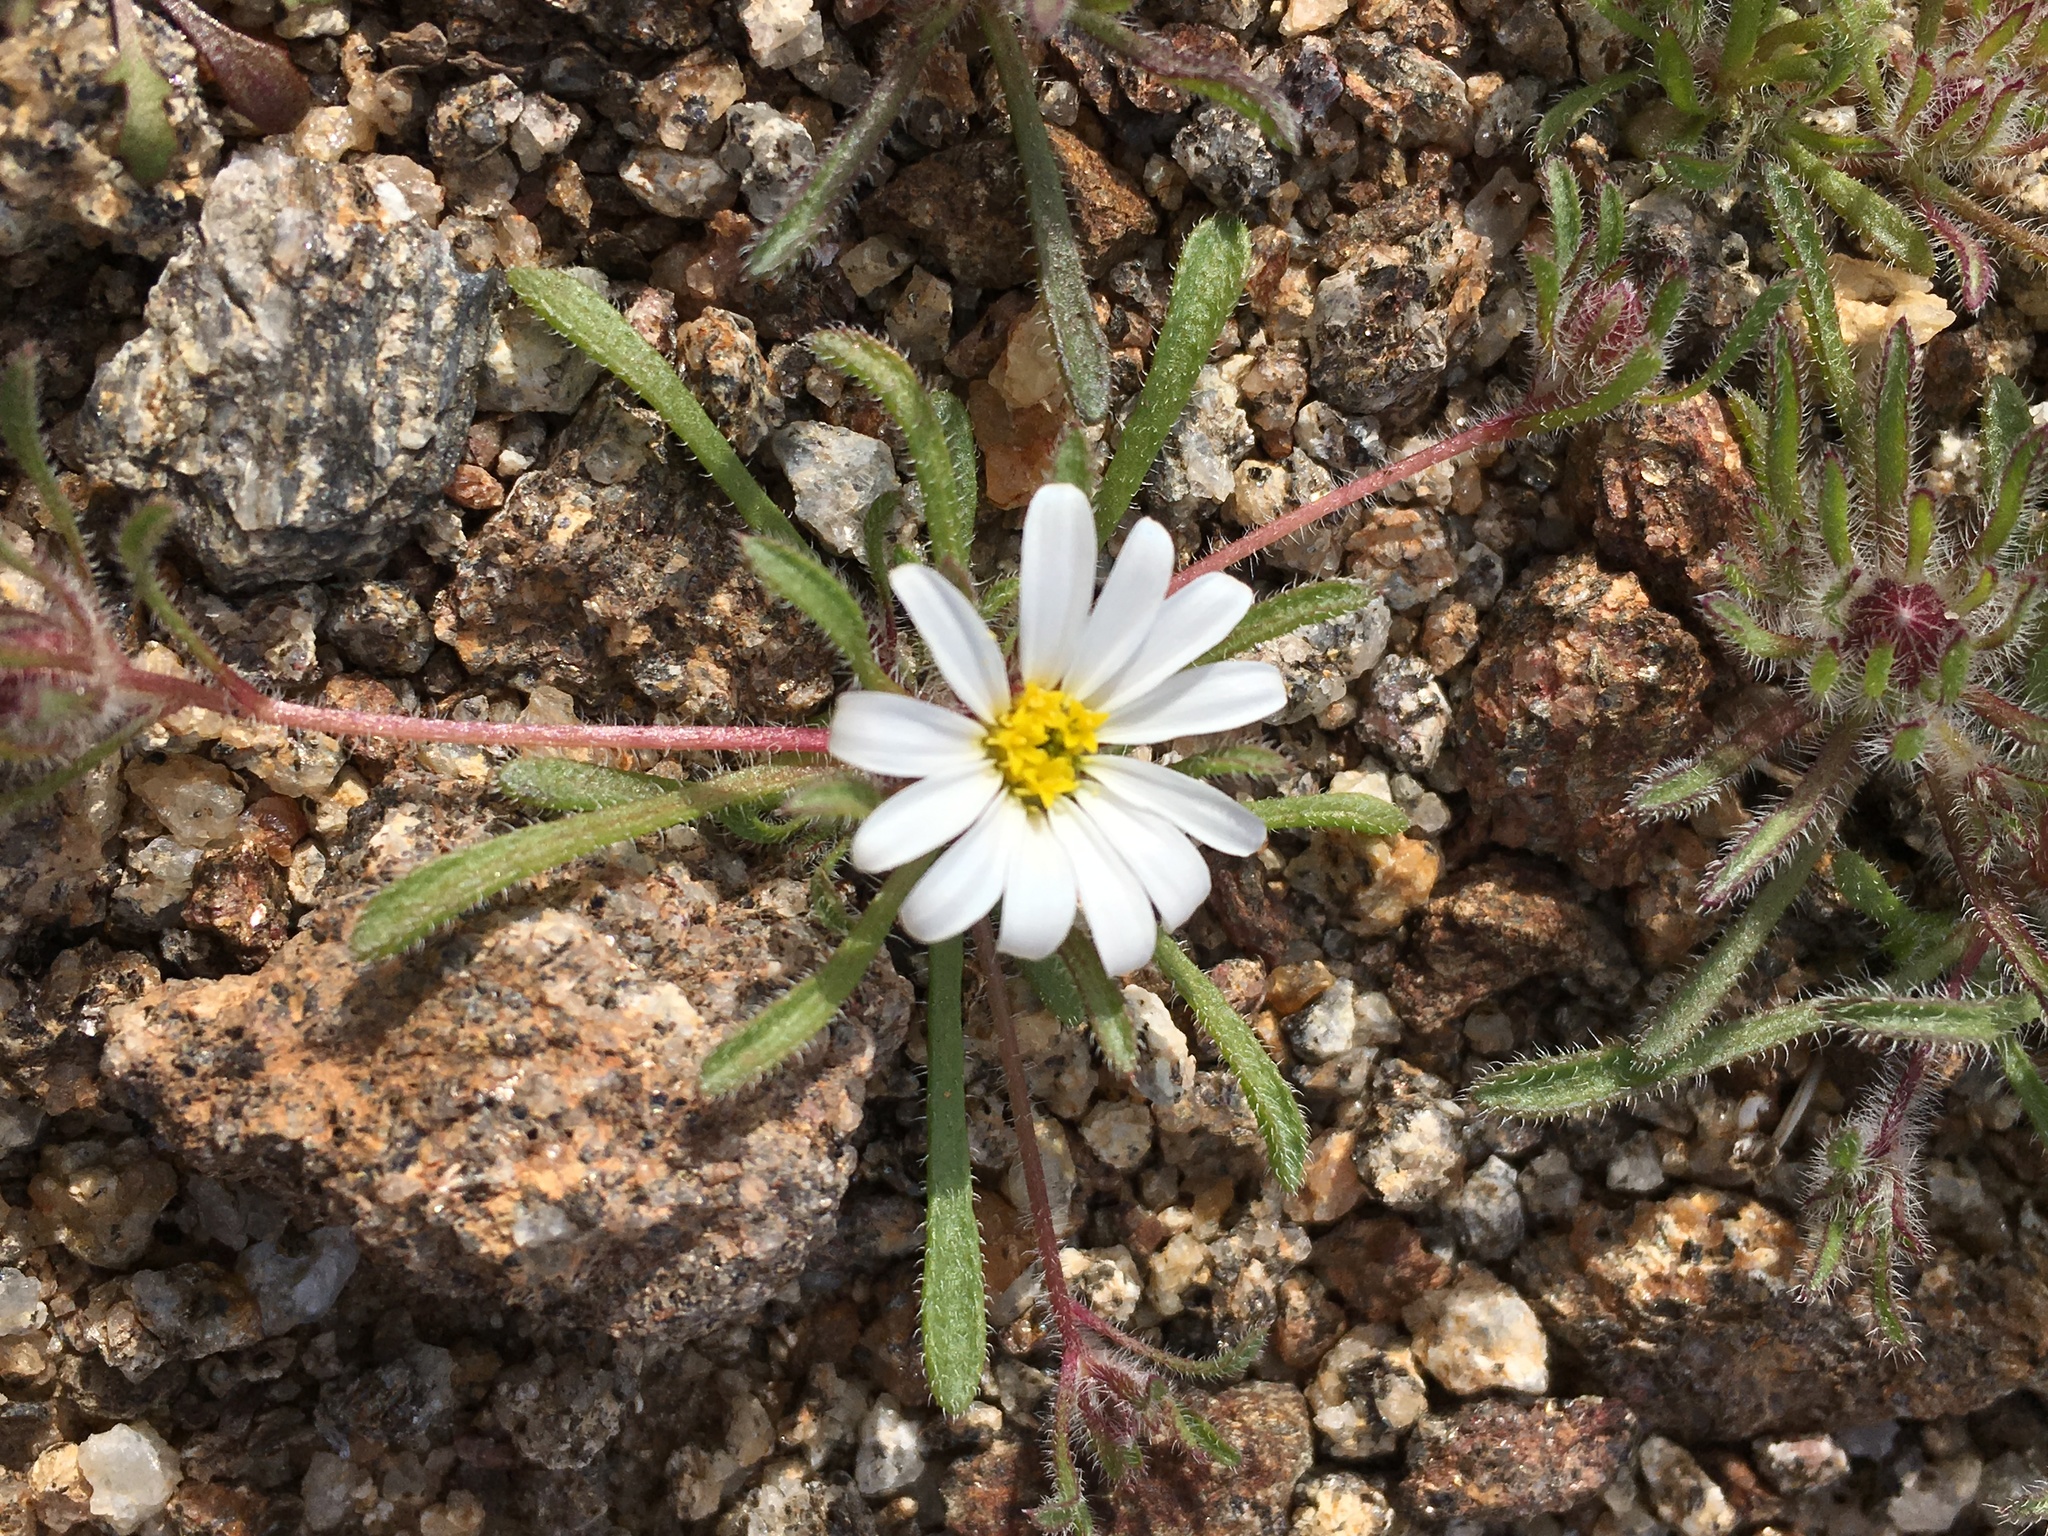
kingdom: Plantae
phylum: Tracheophyta
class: Magnoliopsida
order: Asterales
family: Asteraceae
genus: Monoptilon
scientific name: Monoptilon bellioides
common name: Bristly desertstar
